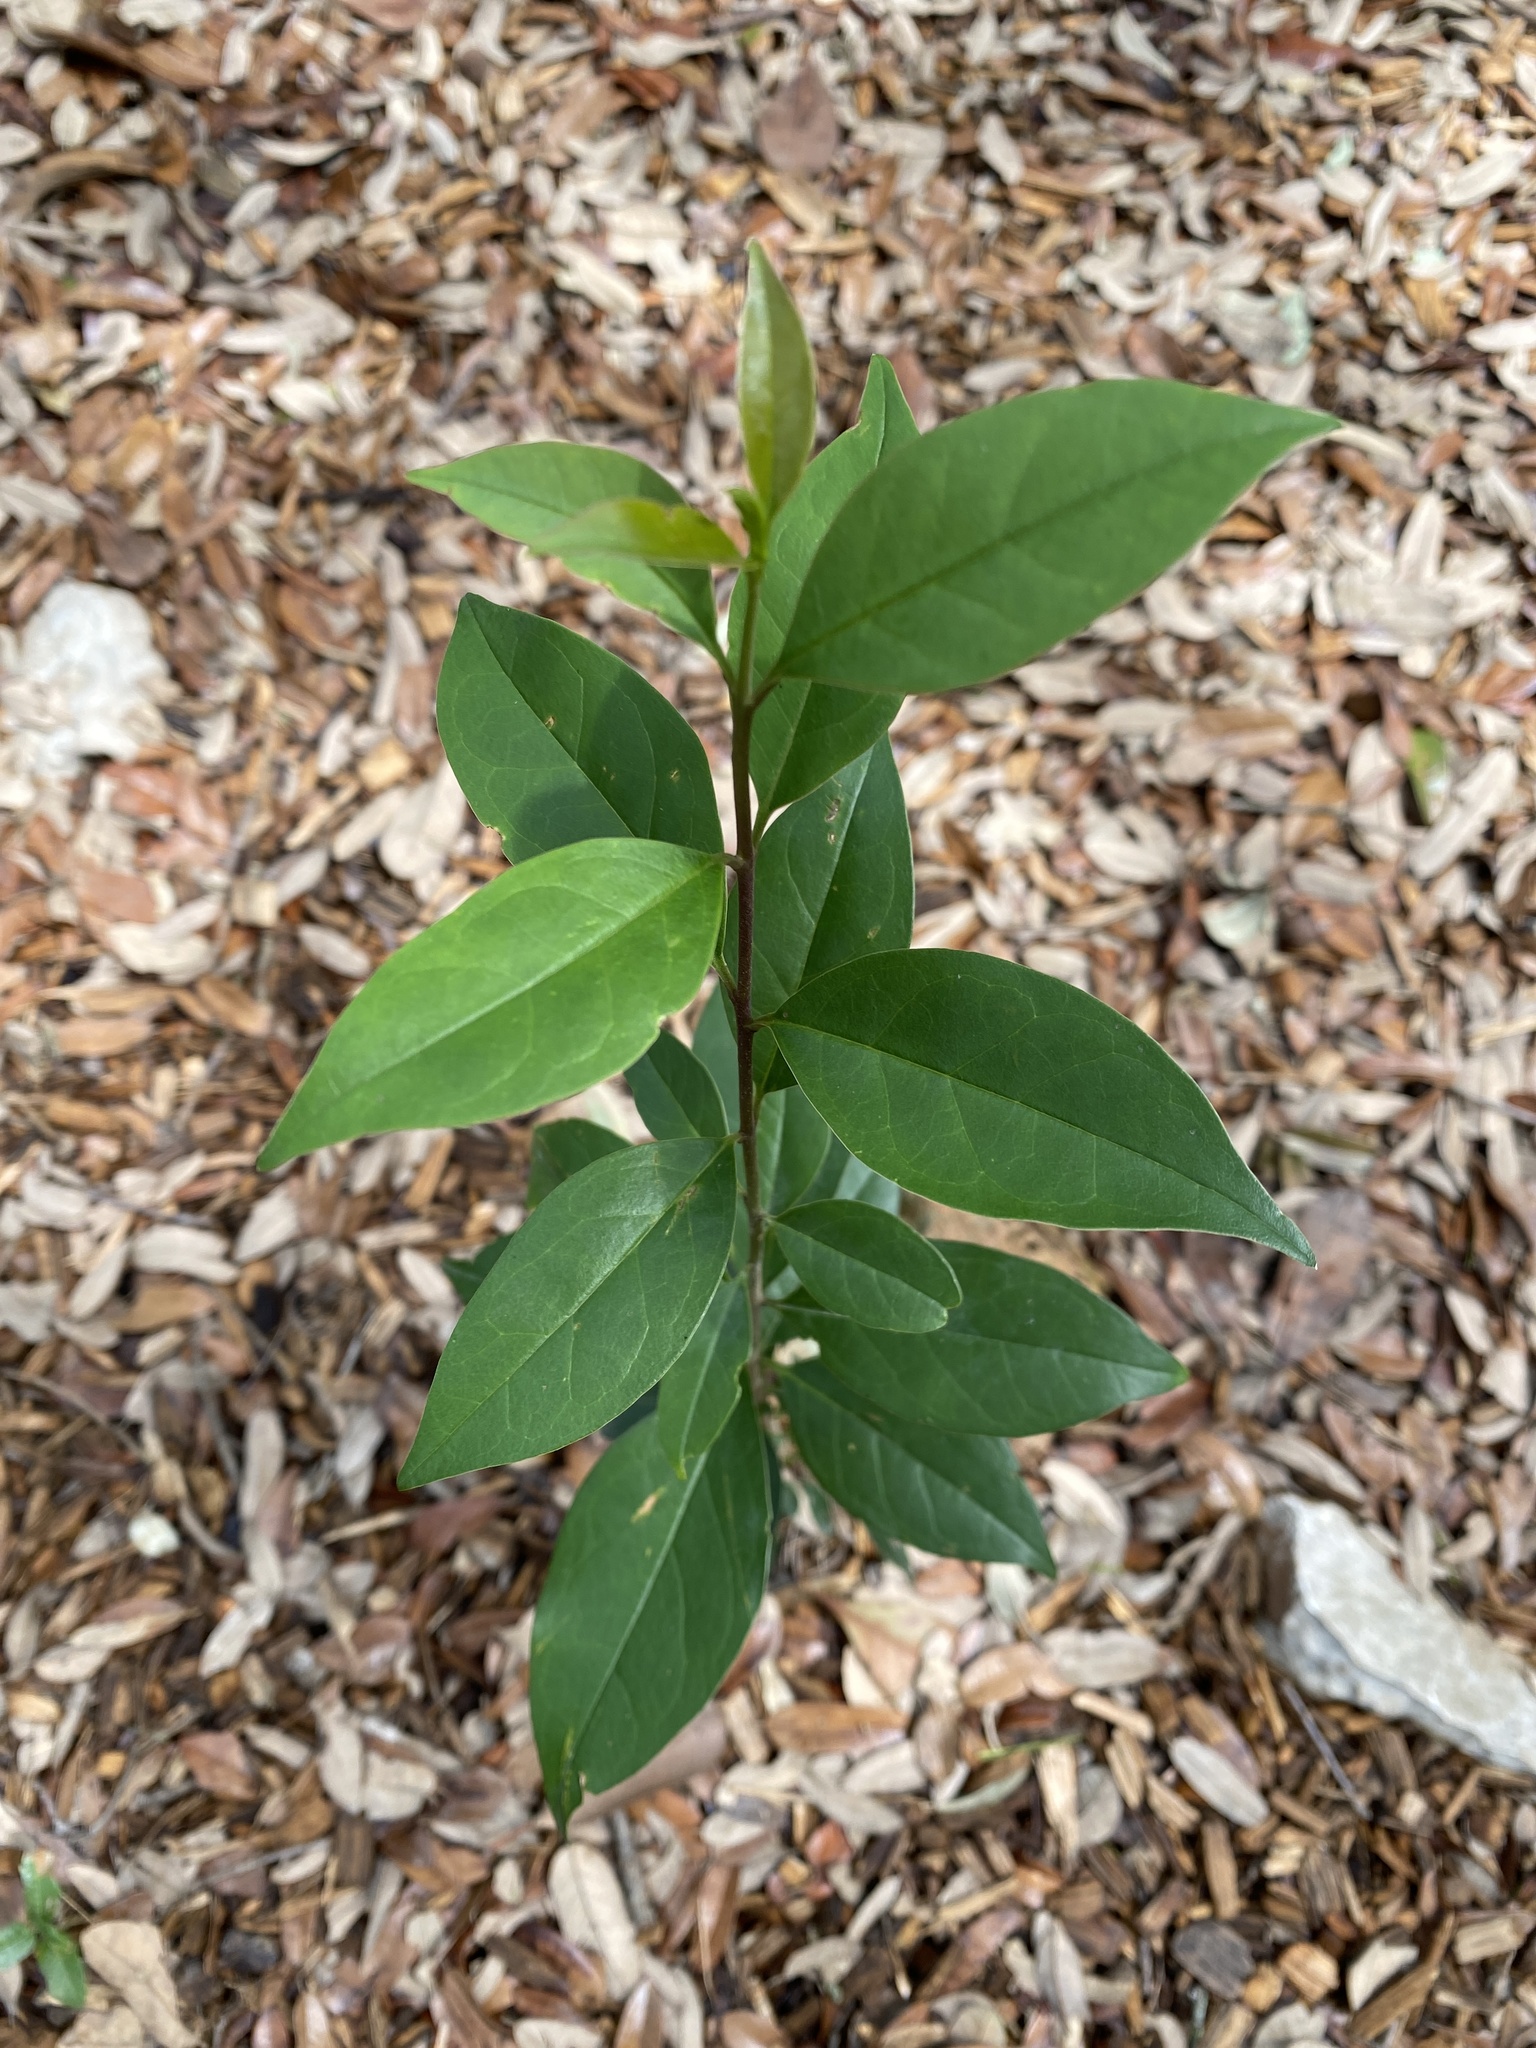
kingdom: Plantae
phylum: Tracheophyta
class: Magnoliopsida
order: Lamiales
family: Oleaceae
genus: Ligustrum
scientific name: Ligustrum lucidum
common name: Glossy privet
